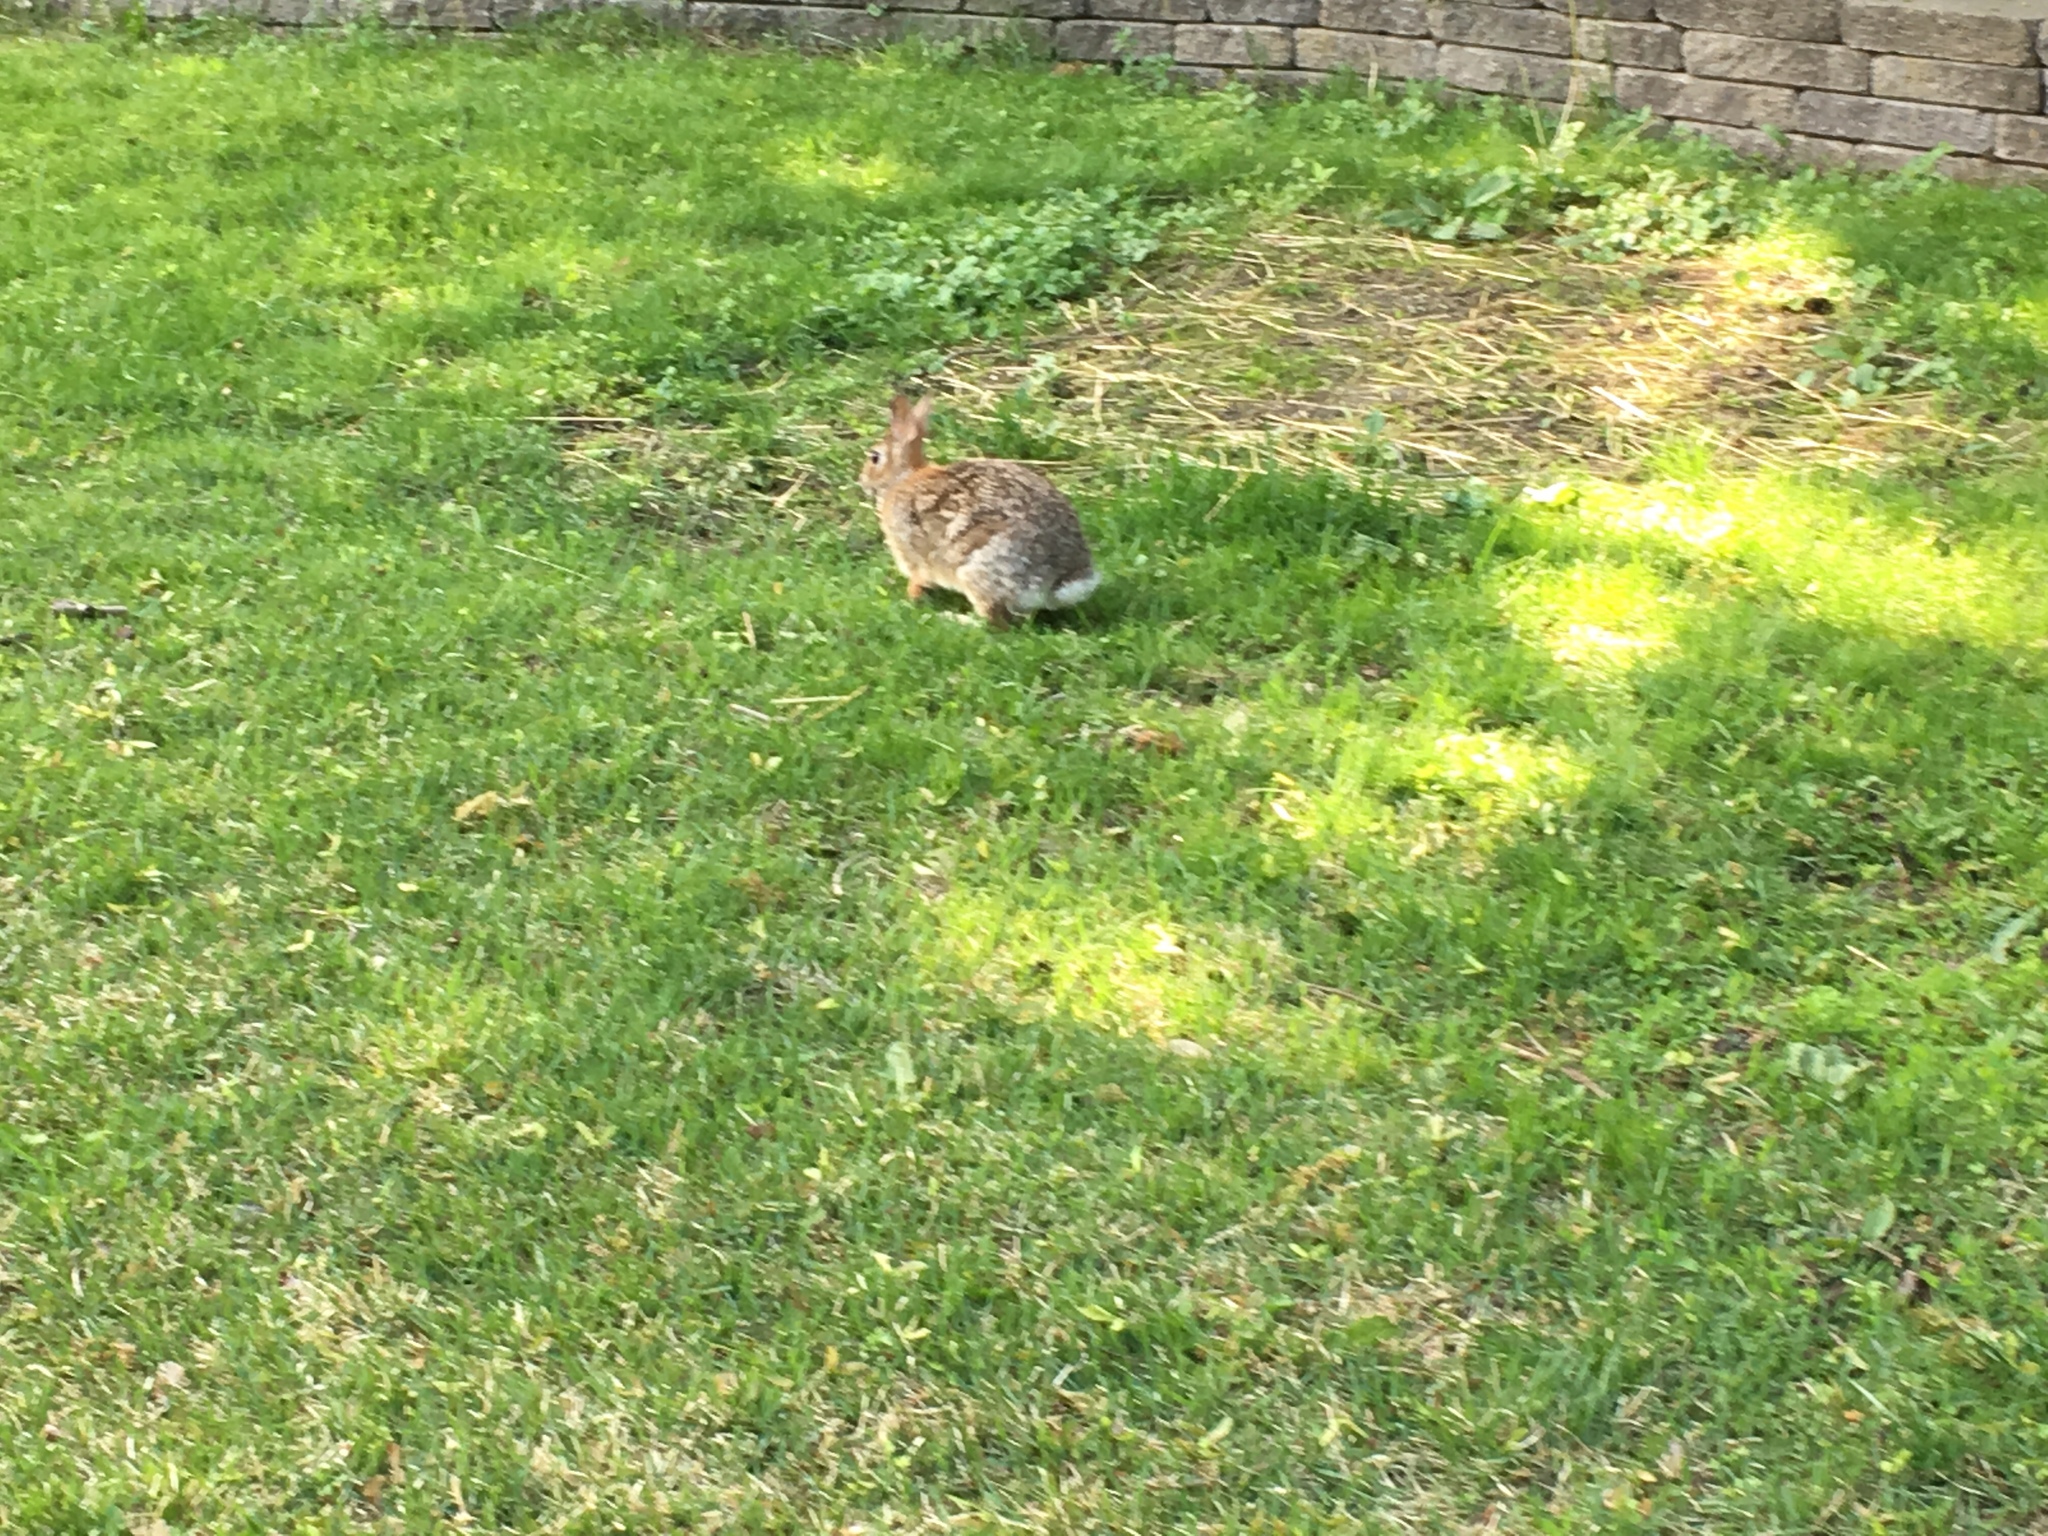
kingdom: Animalia
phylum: Chordata
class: Mammalia
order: Lagomorpha
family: Leporidae
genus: Sylvilagus
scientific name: Sylvilagus floridanus
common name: Eastern cottontail
